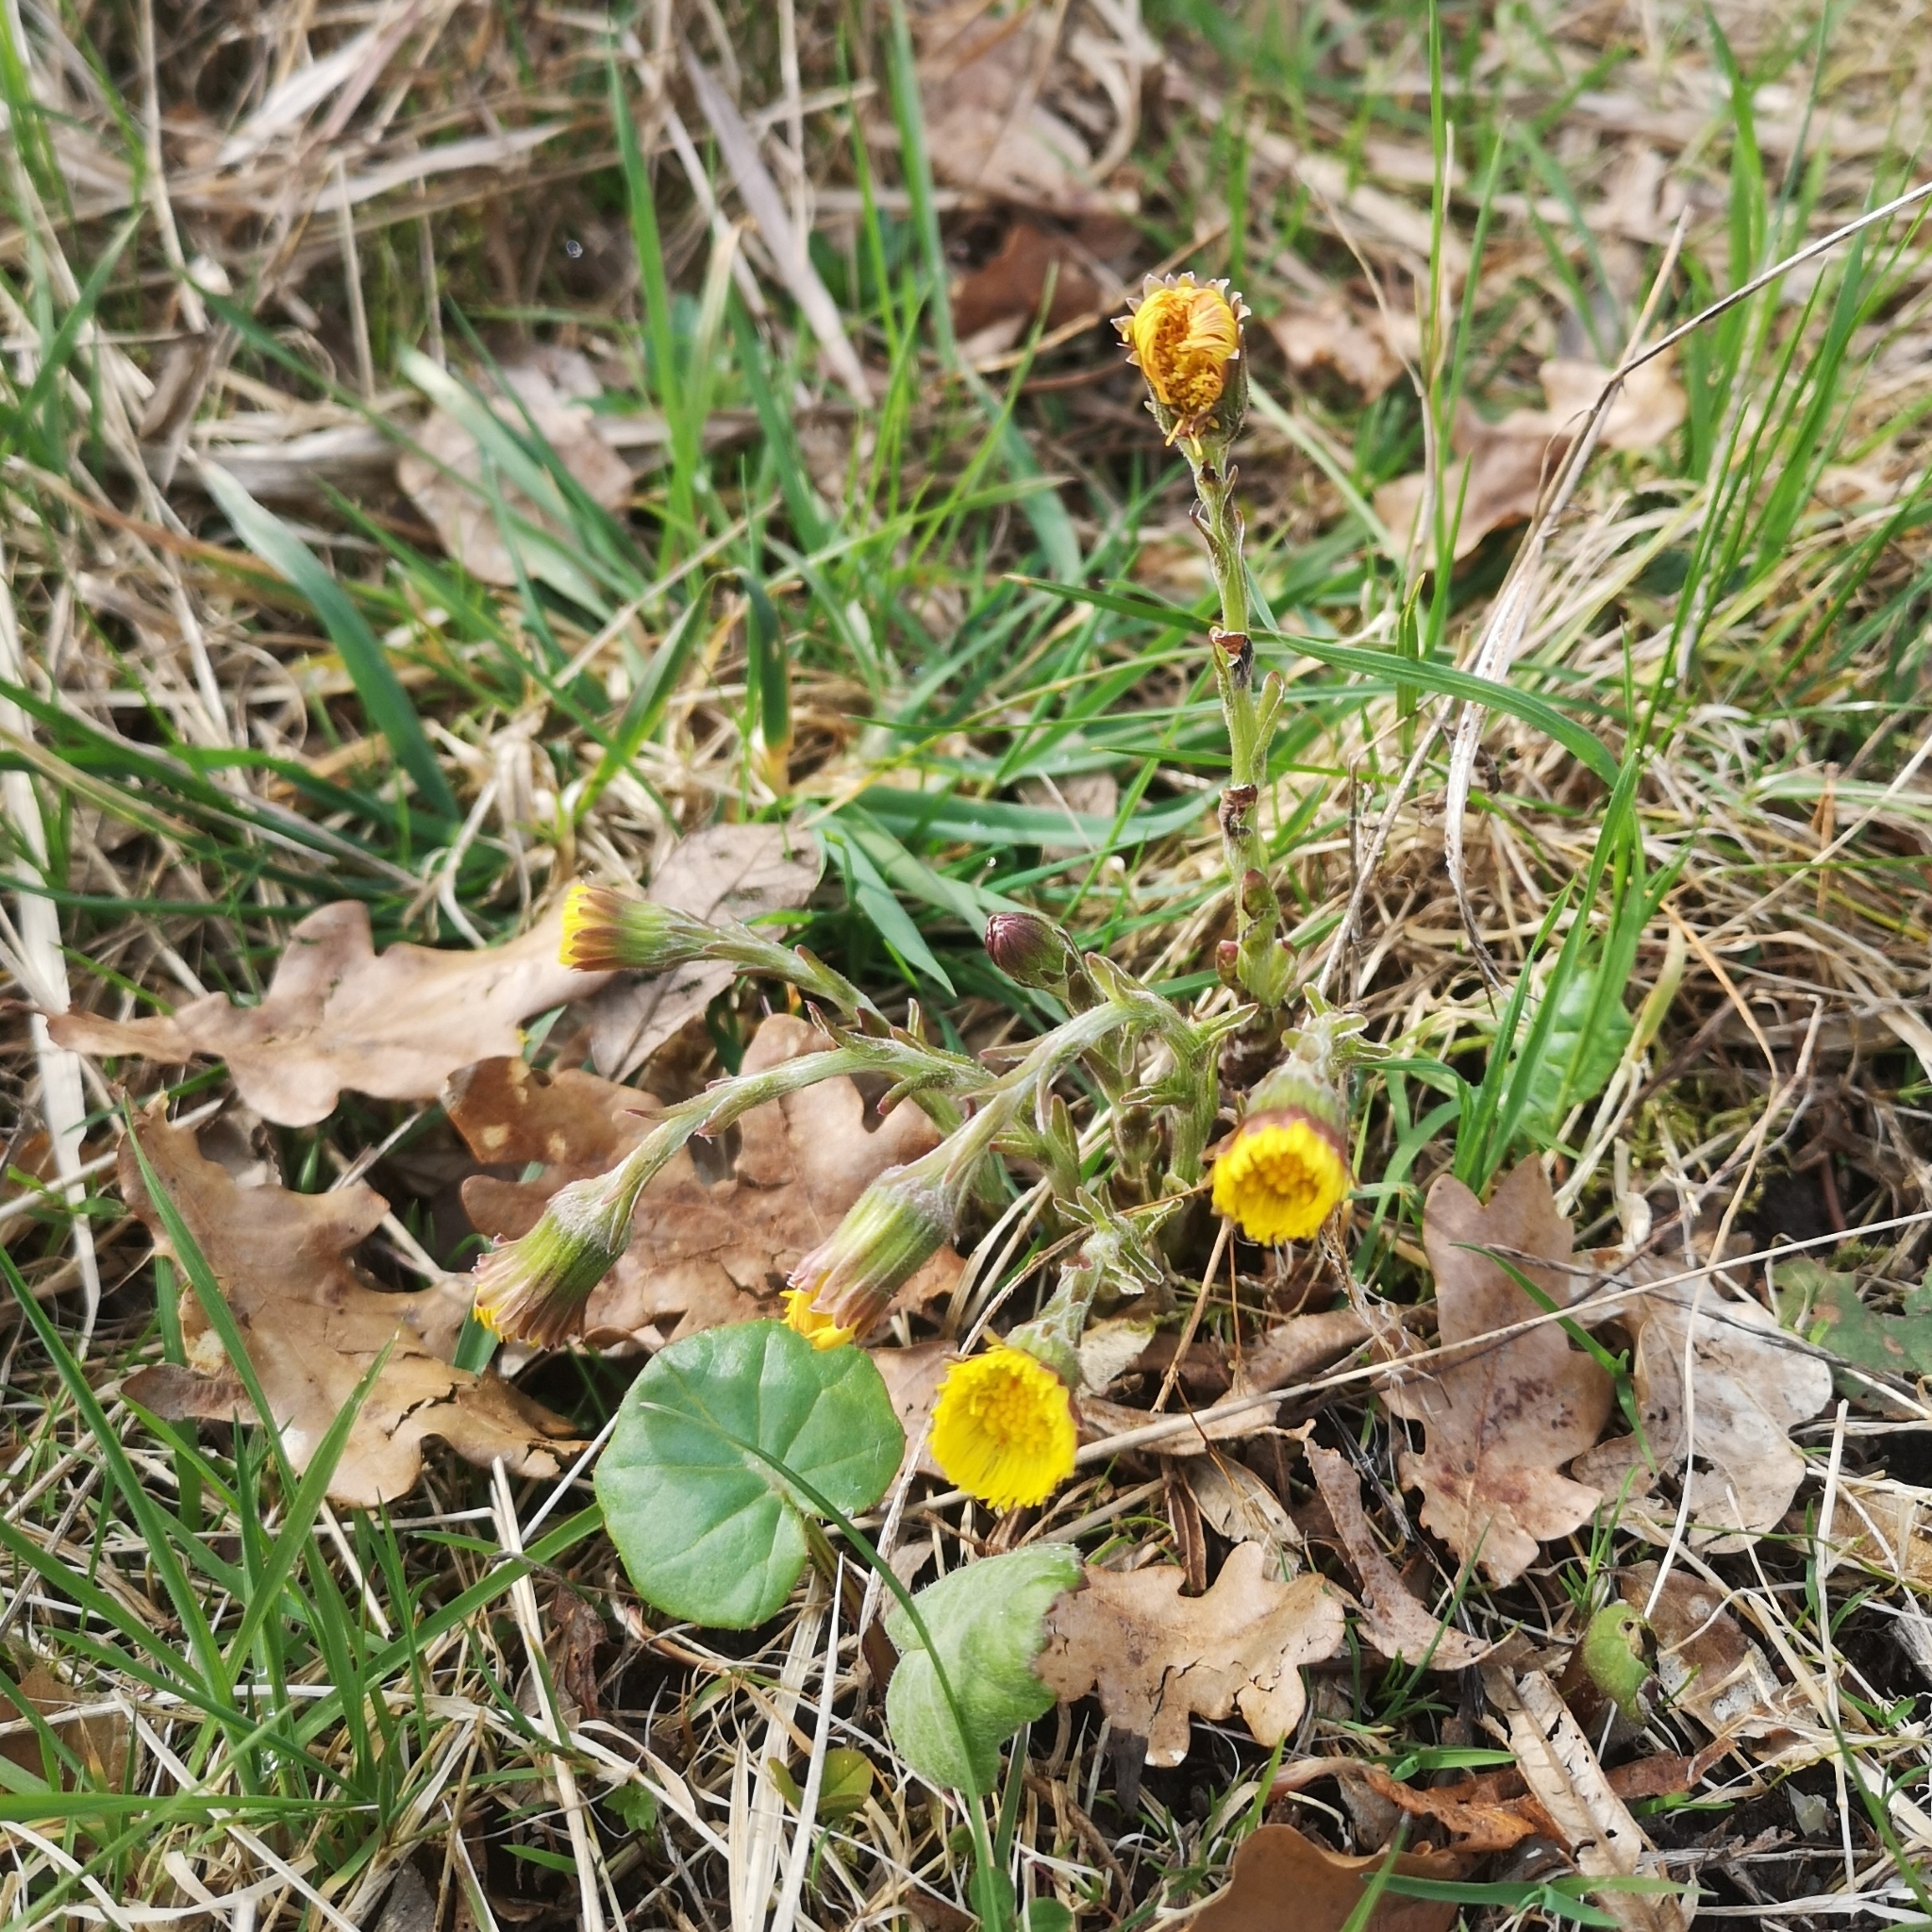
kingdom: Plantae
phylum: Tracheophyta
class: Magnoliopsida
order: Asterales
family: Asteraceae
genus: Tussilago
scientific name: Tussilago farfara
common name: Coltsfoot
